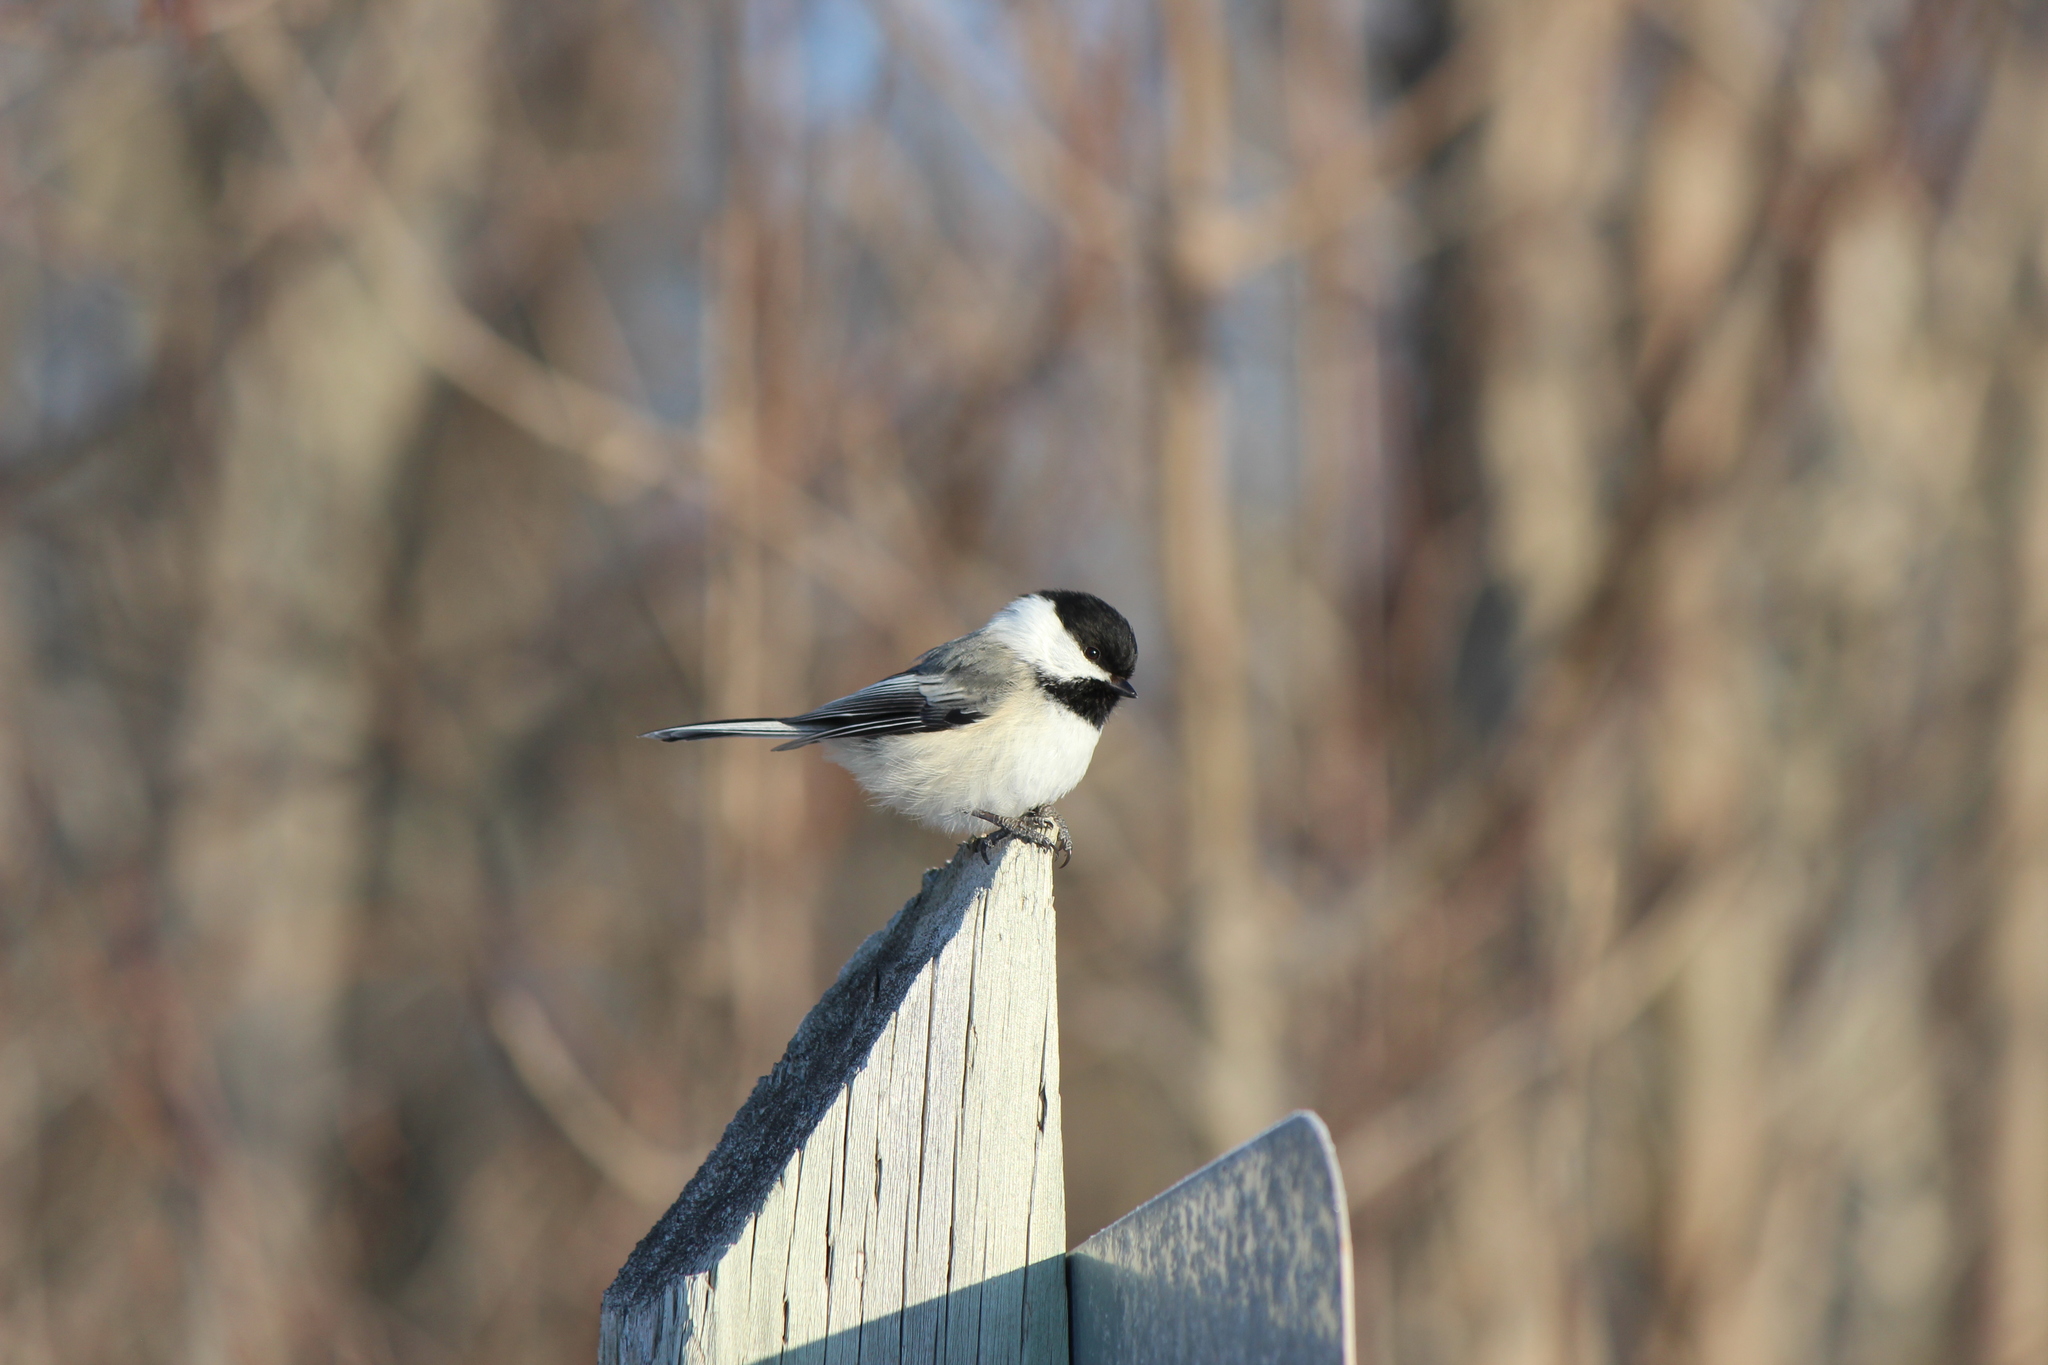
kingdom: Animalia
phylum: Chordata
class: Aves
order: Passeriformes
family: Paridae
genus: Poecile
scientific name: Poecile atricapillus
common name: Black-capped chickadee
